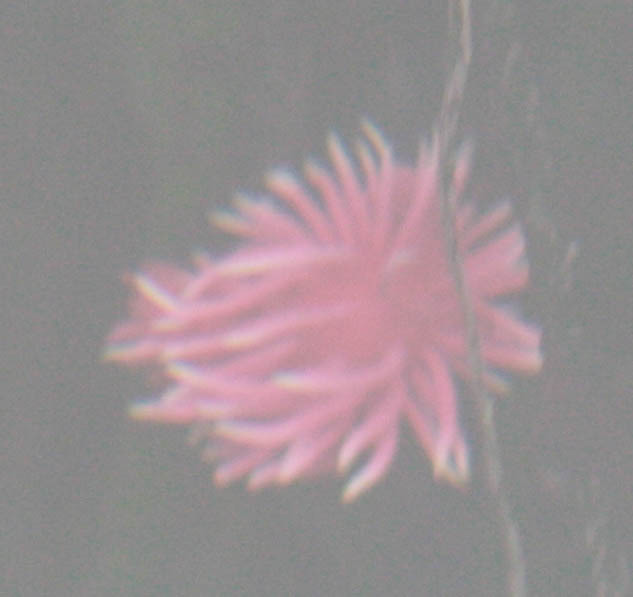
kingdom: Animalia
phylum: Mollusca
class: Gastropoda
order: Nudibranchia
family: Goniodorididae
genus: Okenia
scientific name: Okenia
